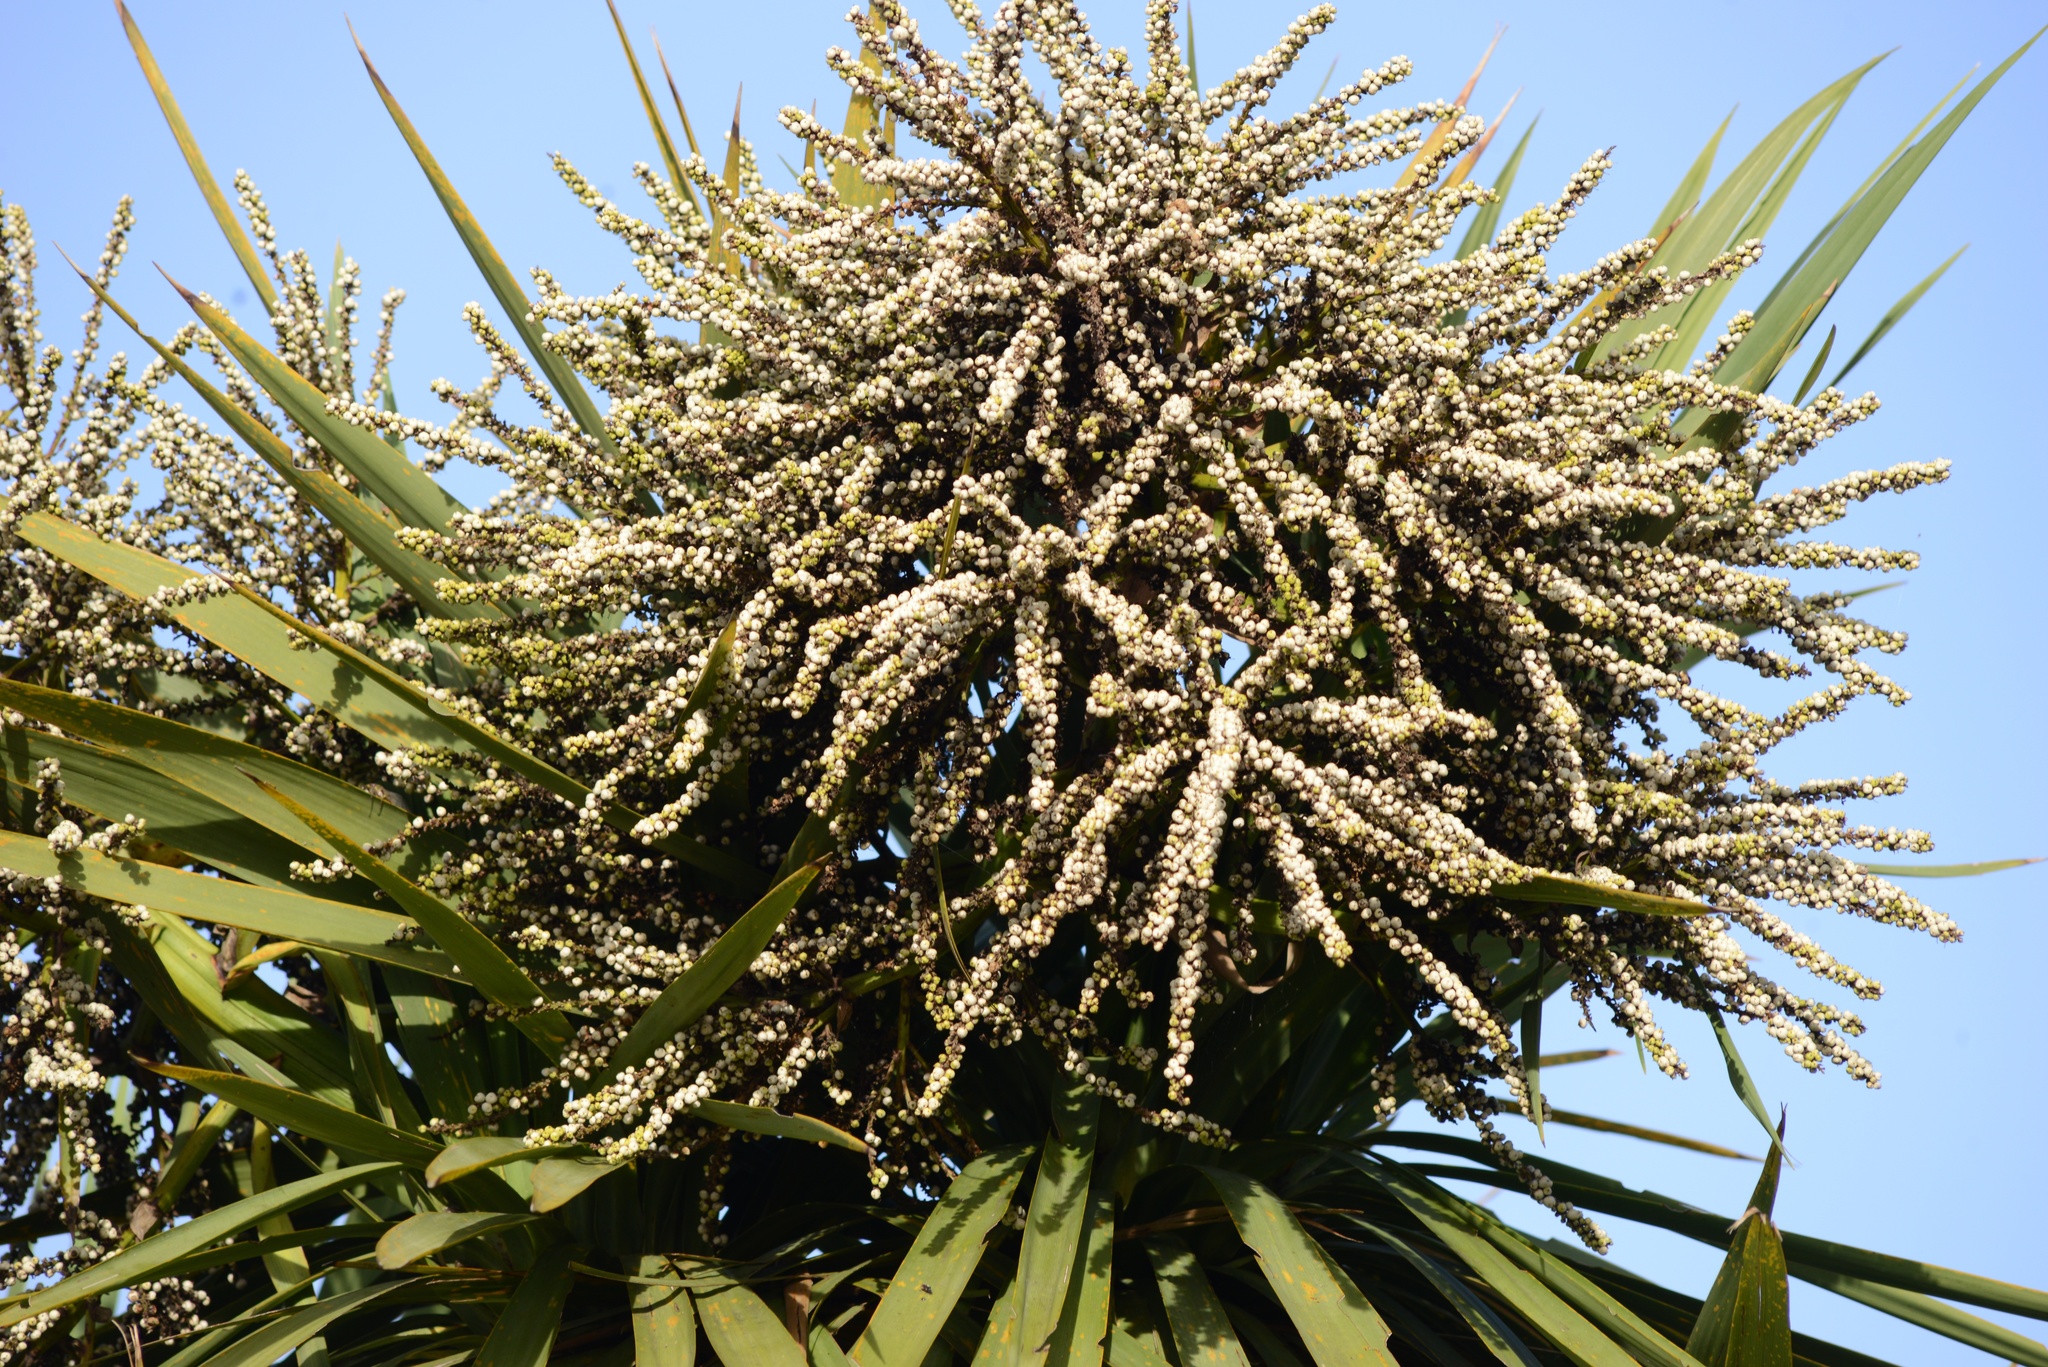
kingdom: Plantae
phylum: Tracheophyta
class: Liliopsida
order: Asparagales
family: Asparagaceae
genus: Cordyline
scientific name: Cordyline australis
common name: Cabbage-palm
